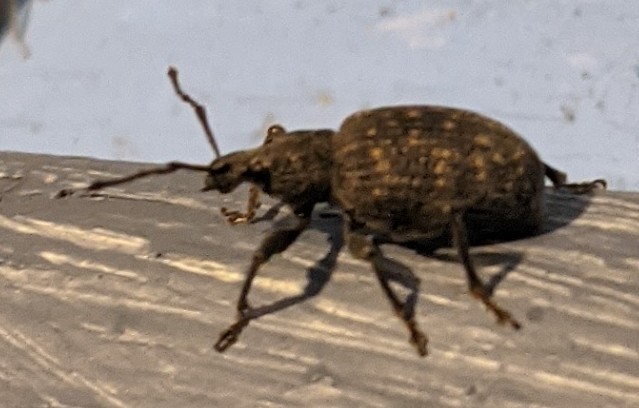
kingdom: Animalia
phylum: Arthropoda
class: Insecta
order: Coleoptera
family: Curculionidae
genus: Otiorhynchus
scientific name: Otiorhynchus sulcatus
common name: Black vine weevil
